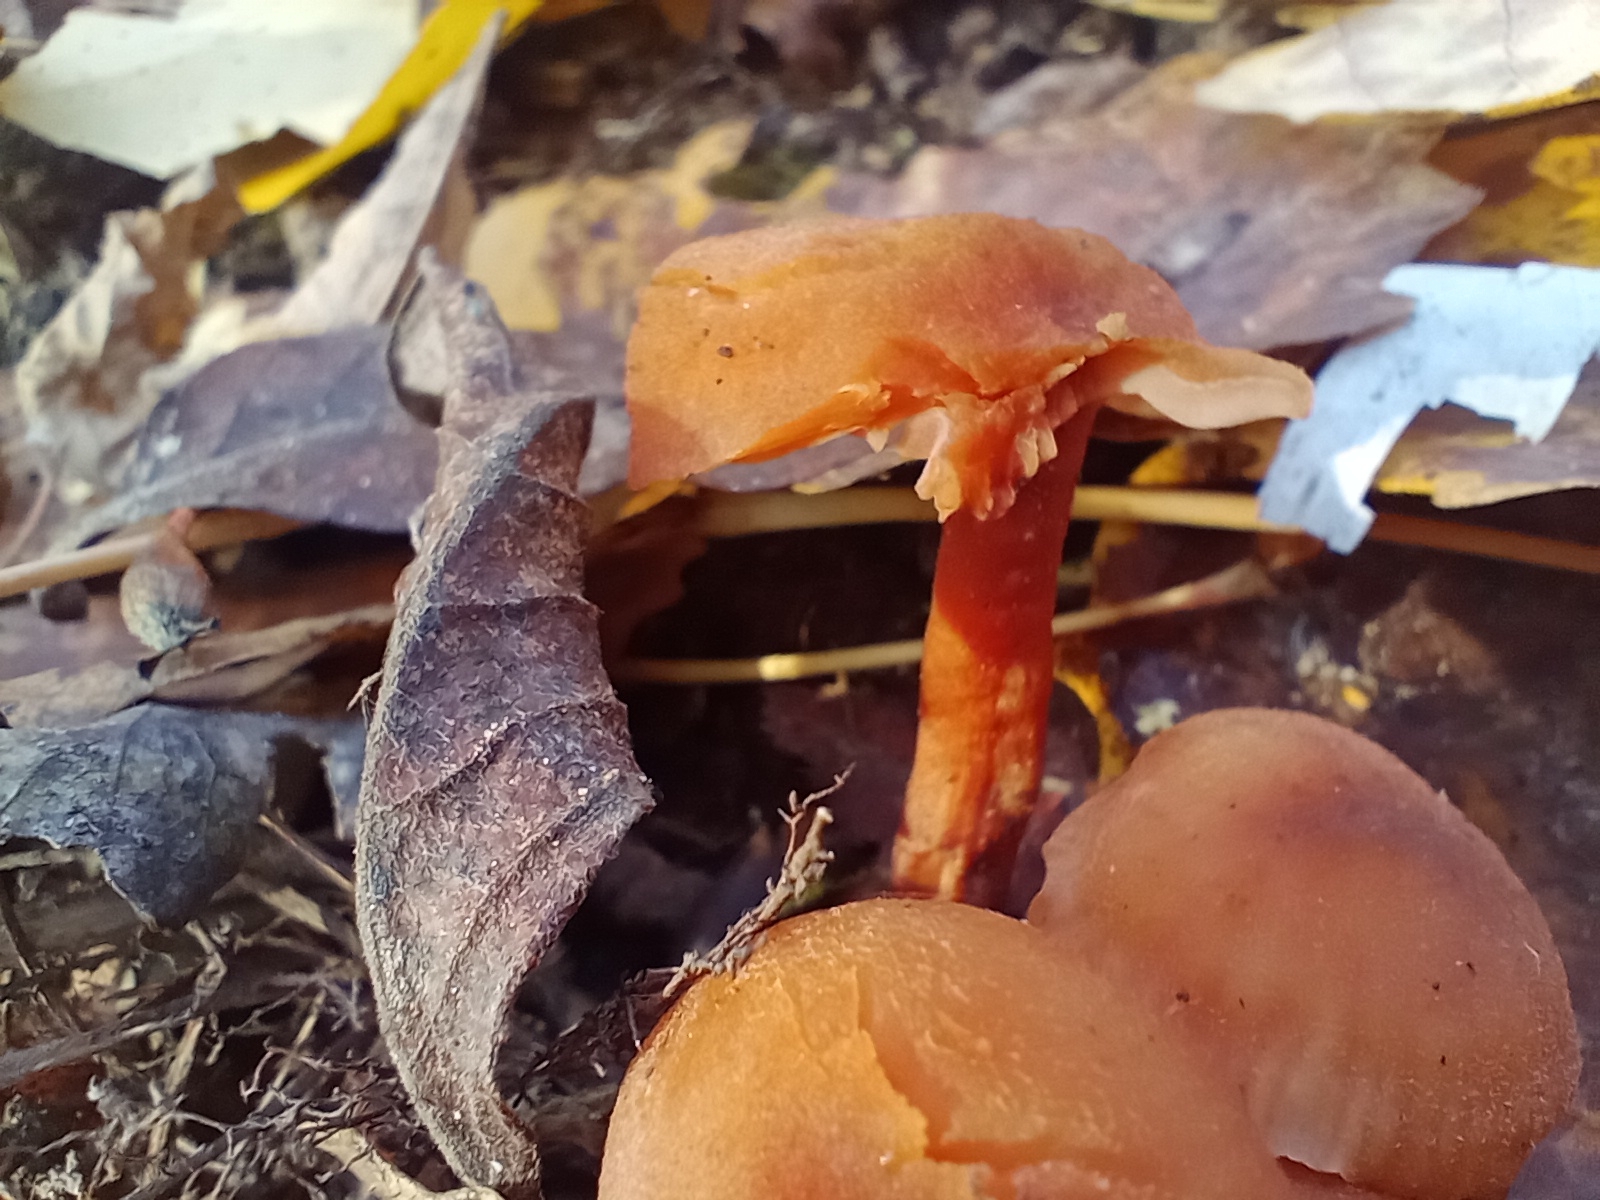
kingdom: Fungi
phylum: Basidiomycota
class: Agaricomycetes
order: Agaricales
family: Hydnangiaceae
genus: Laccaria
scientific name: Laccaria laccata
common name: Deceiver
